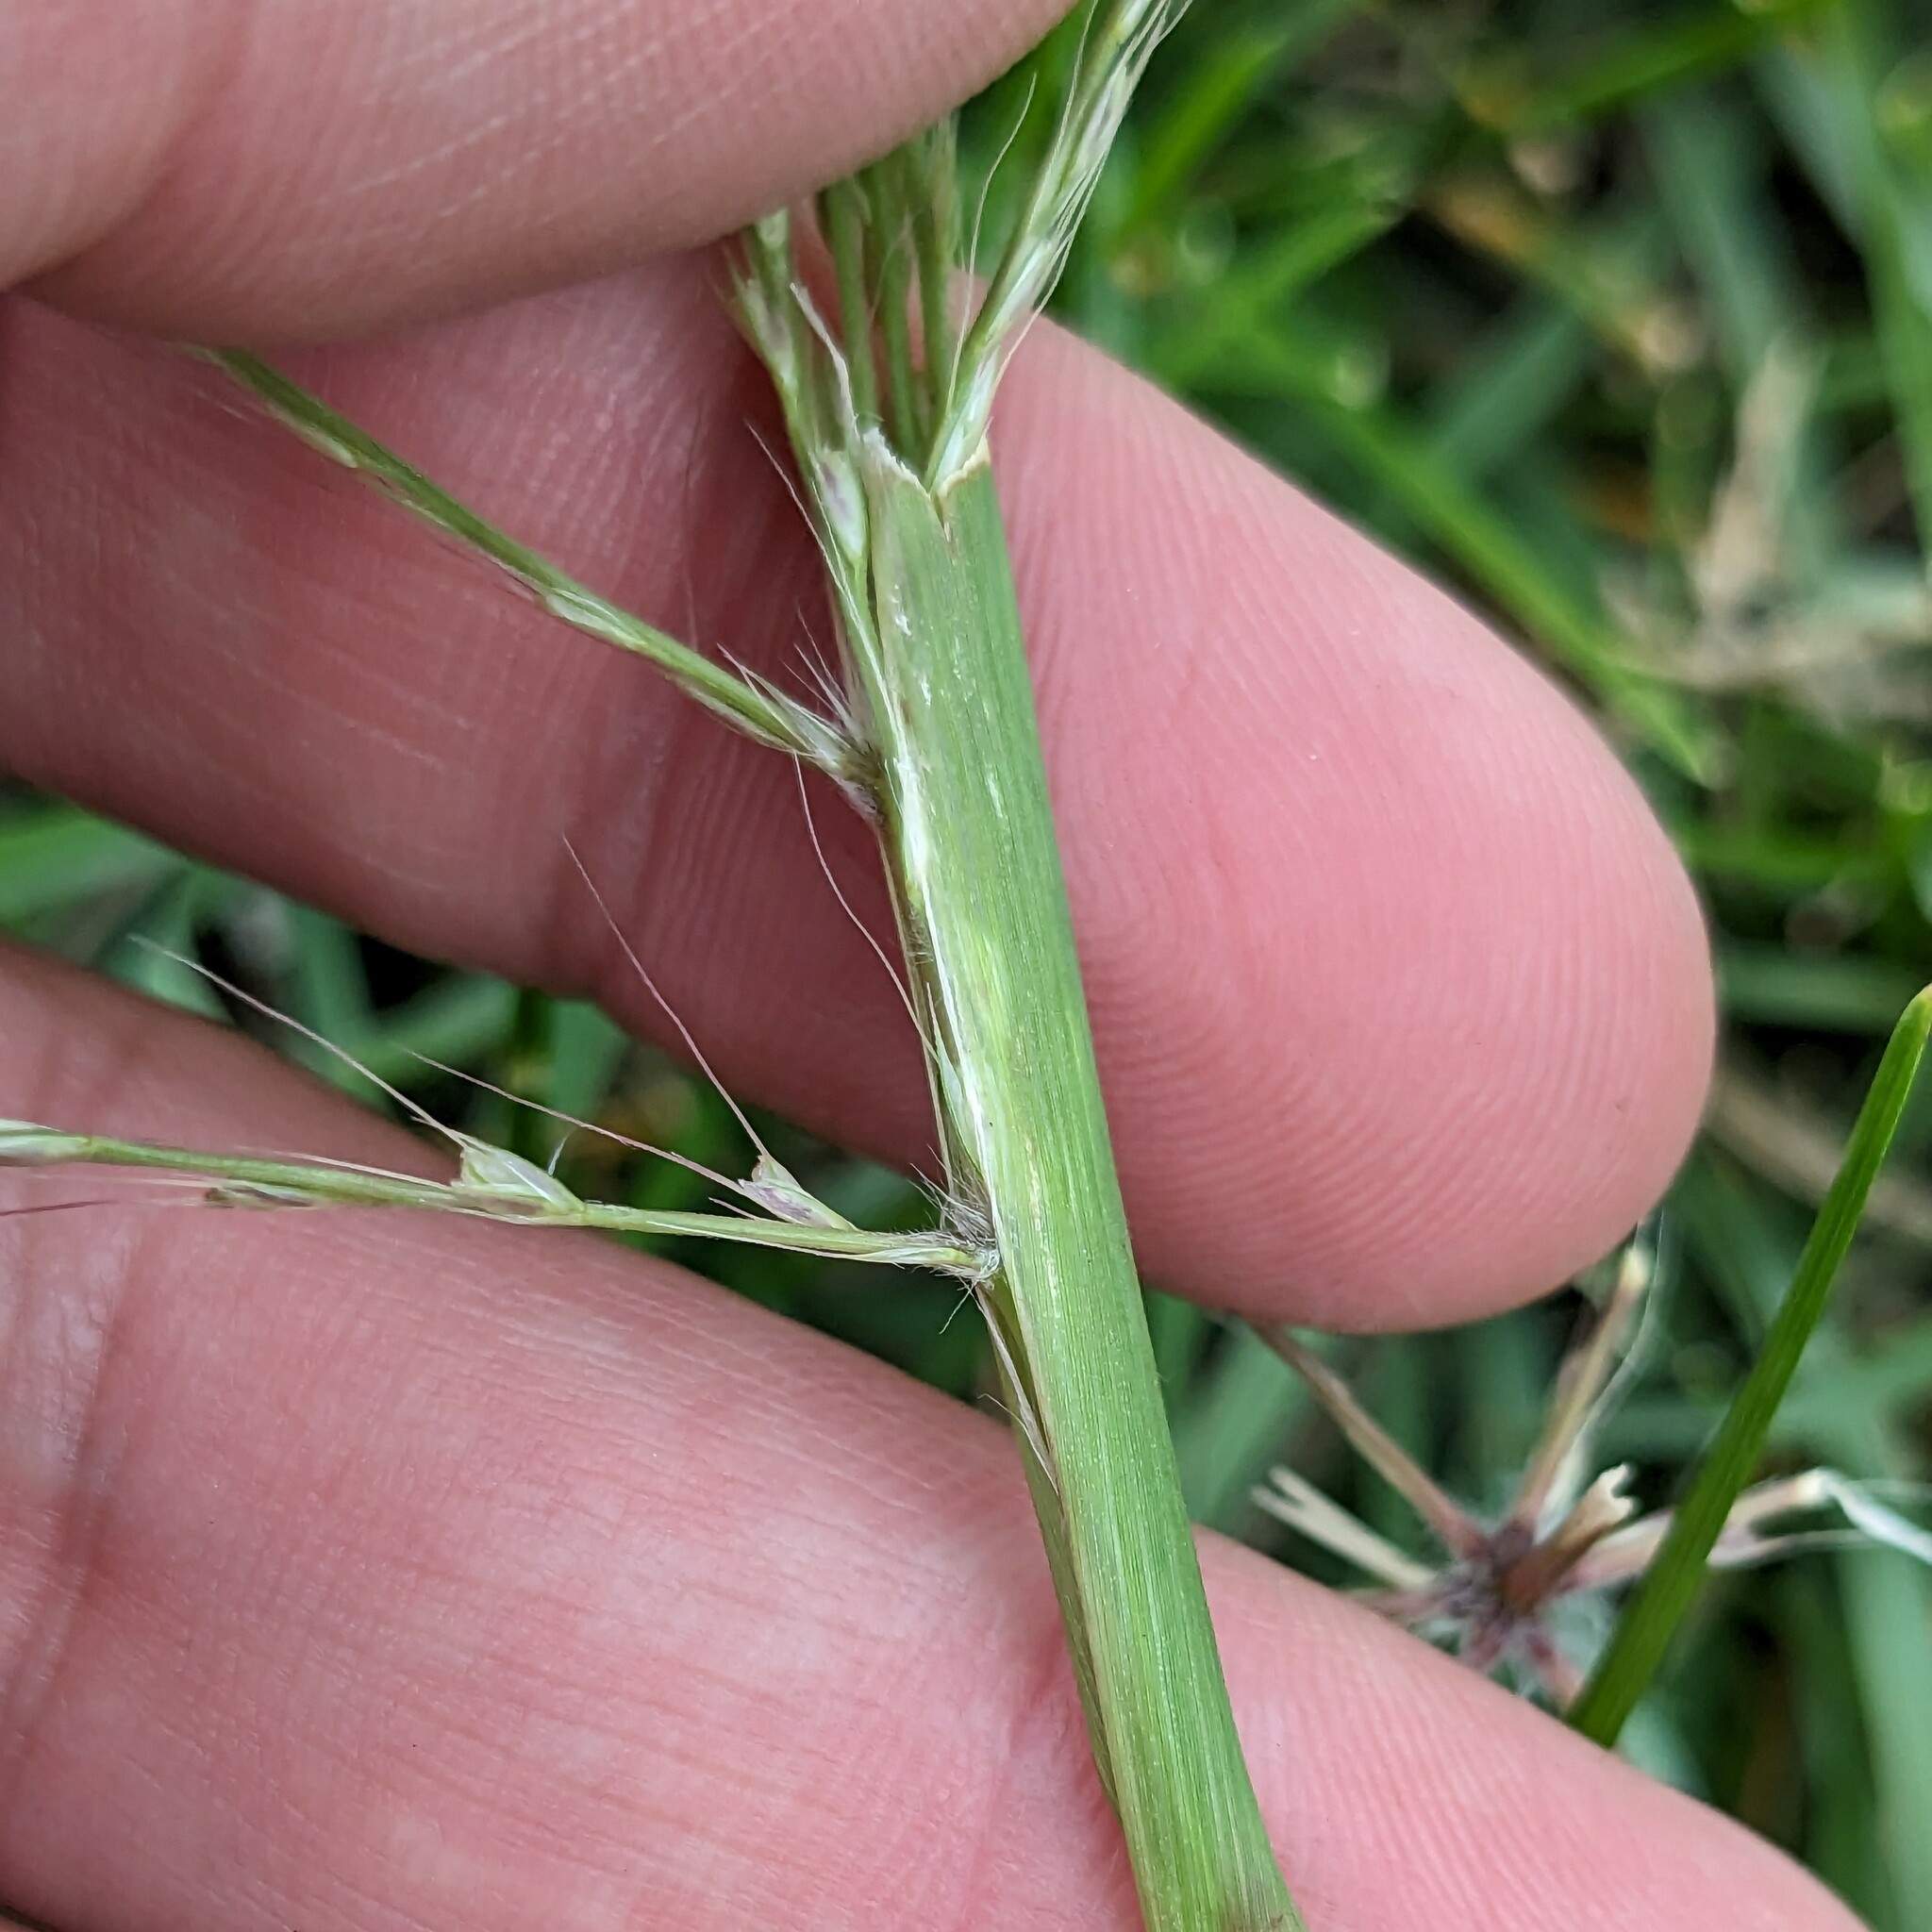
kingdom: Plantae
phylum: Tracheophyta
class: Liliopsida
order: Poales
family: Poaceae
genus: Chloris
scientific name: Chloris verticillata
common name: Tumble windmill grass
